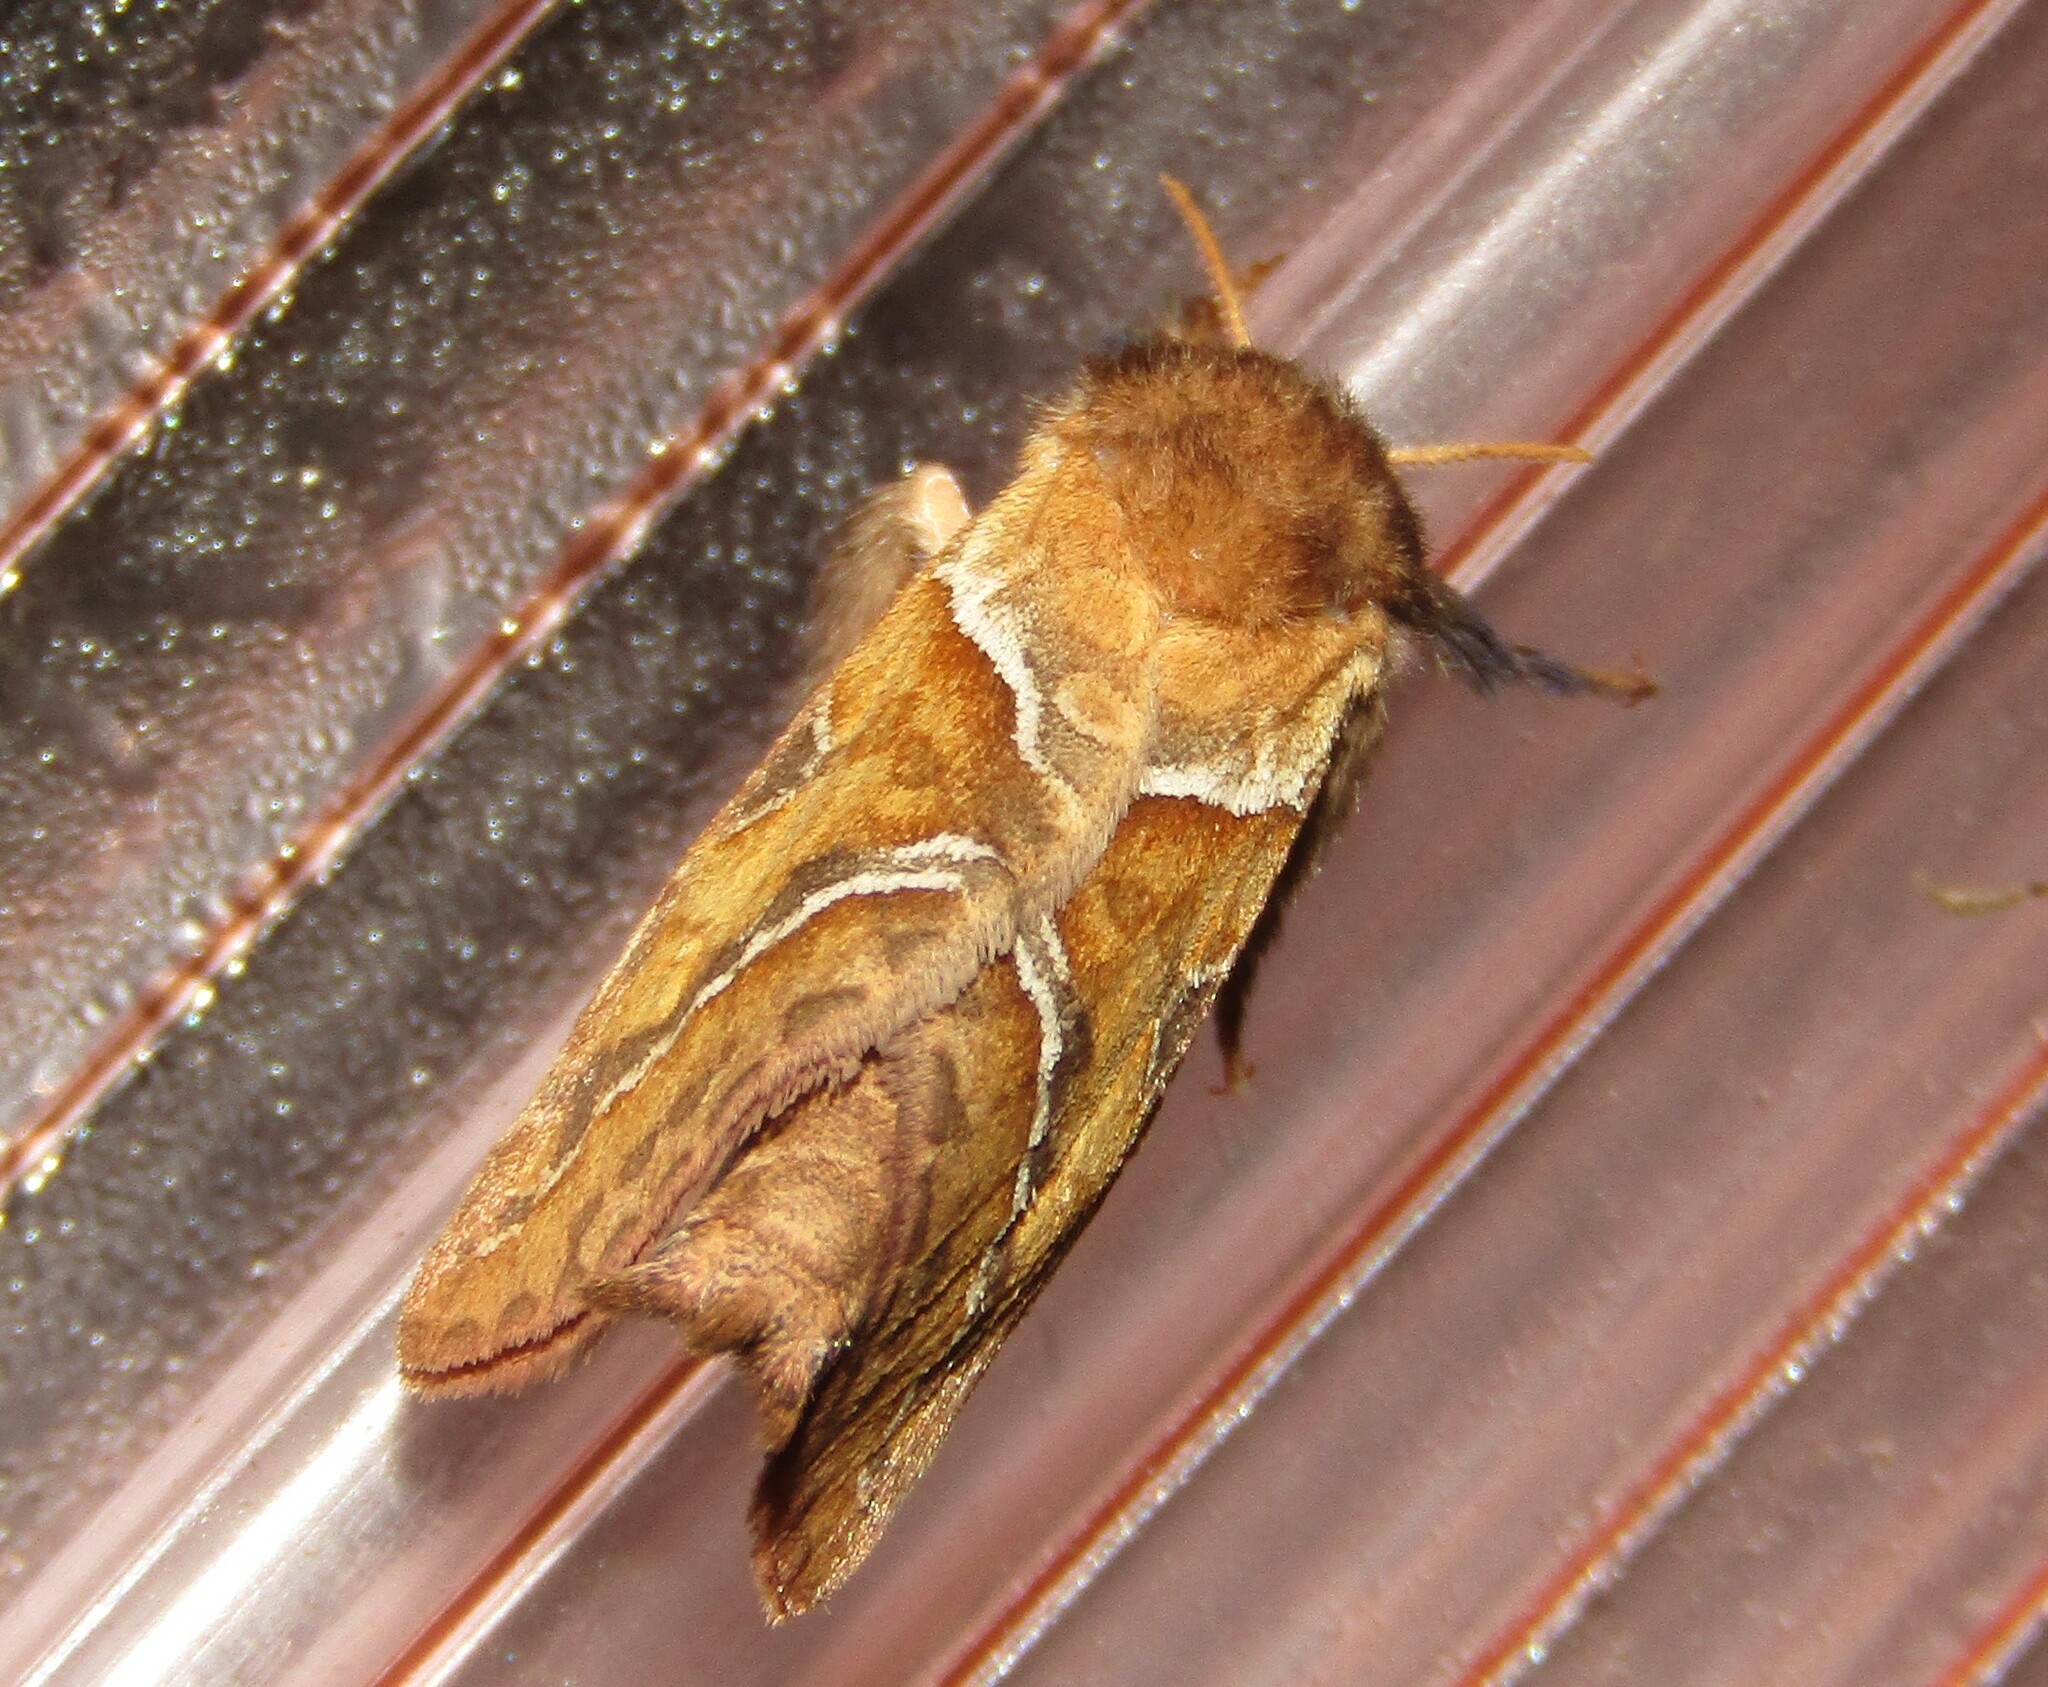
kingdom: Animalia
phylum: Arthropoda
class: Insecta
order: Lepidoptera
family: Hepialidae
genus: Triodia
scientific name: Triodia sylvina
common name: Orange swift
